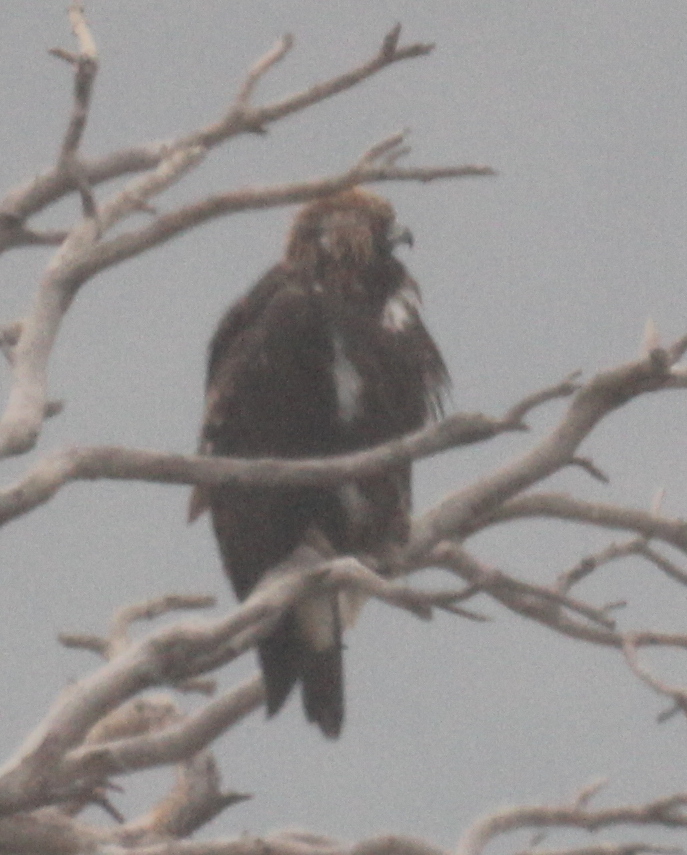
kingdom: Animalia
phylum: Chordata
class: Aves
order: Accipitriformes
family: Accipitridae
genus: Aquila
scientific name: Aquila chrysaetos
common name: Golden eagle
